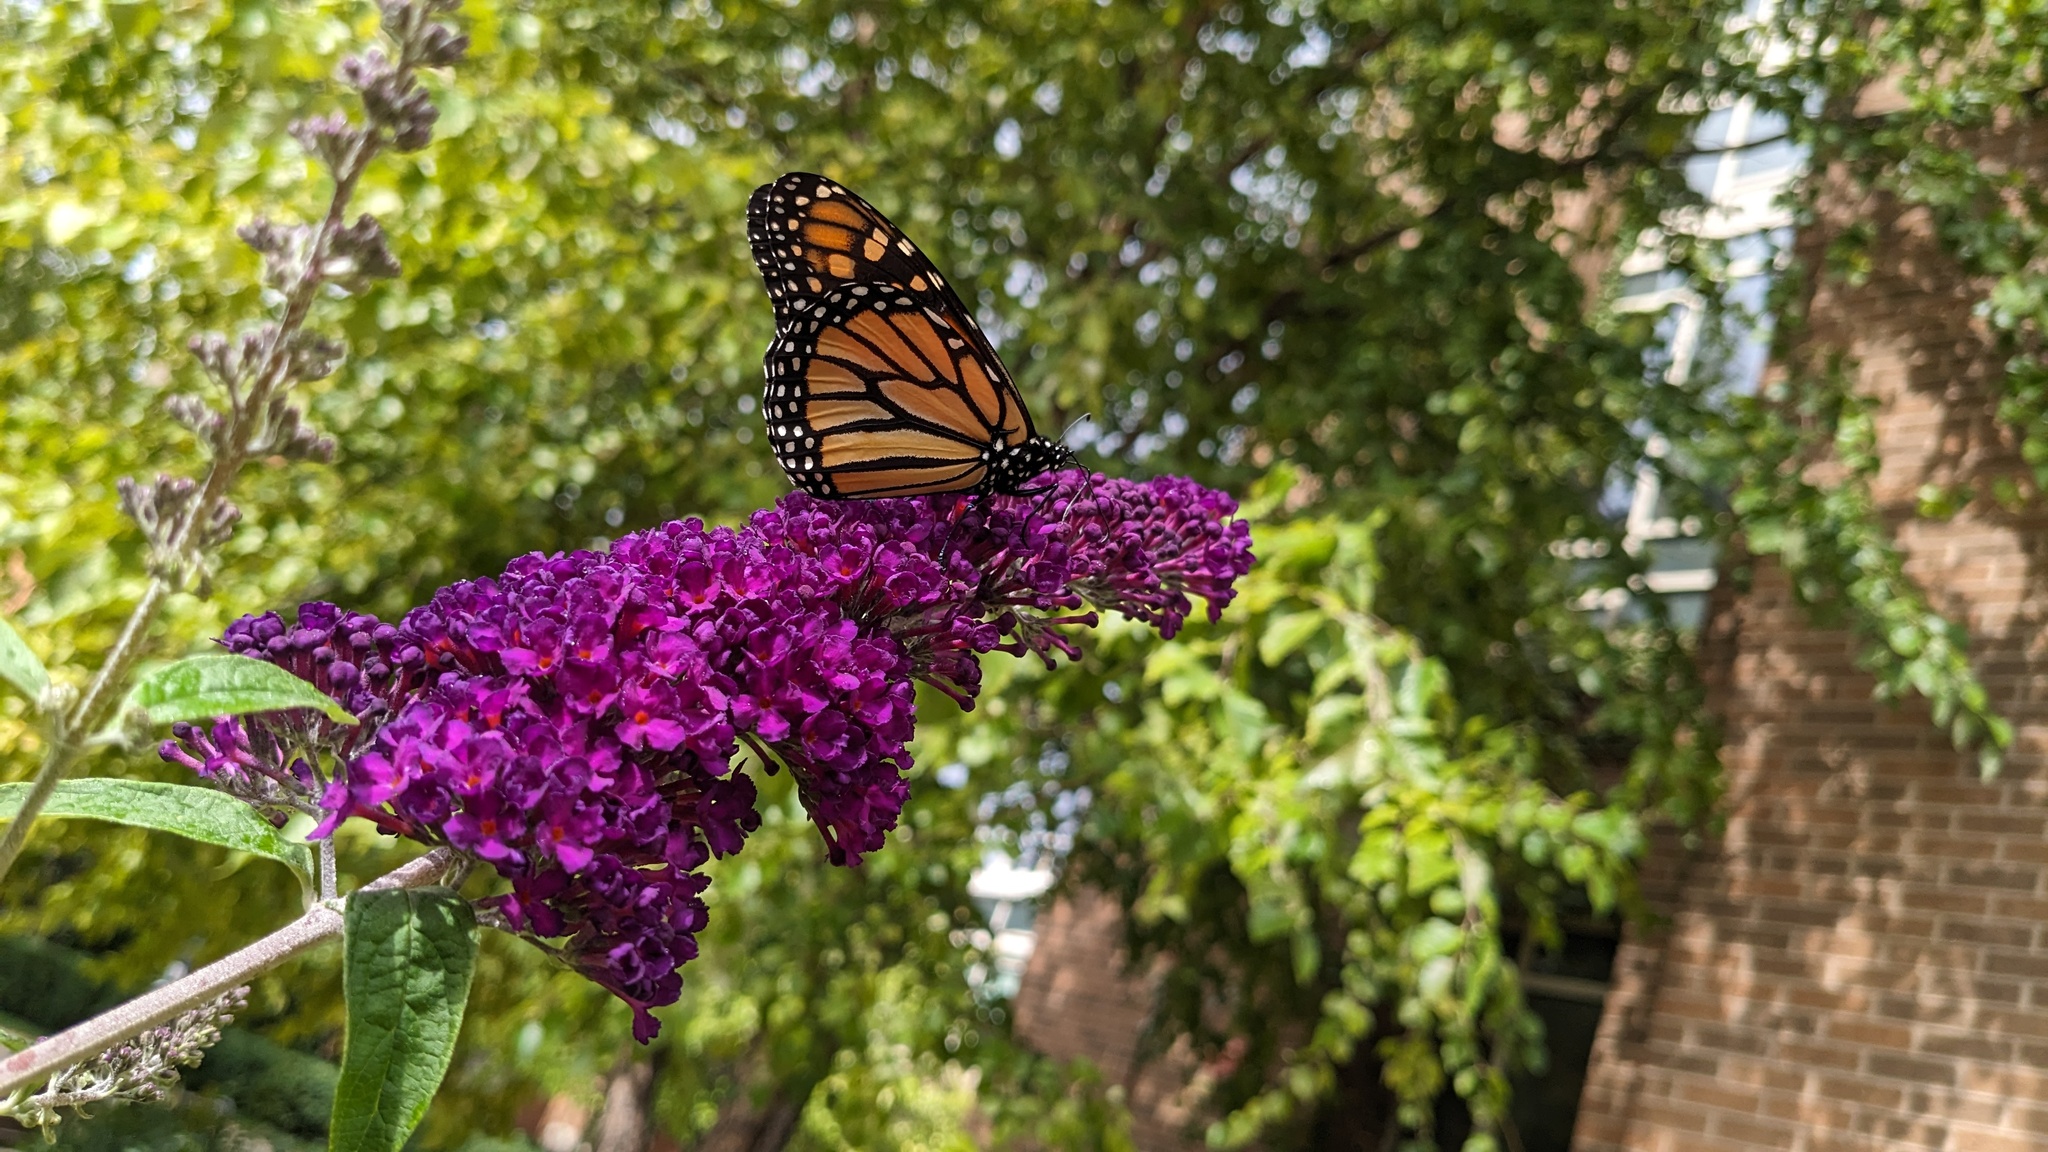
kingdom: Animalia
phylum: Arthropoda
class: Insecta
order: Lepidoptera
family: Nymphalidae
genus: Danaus
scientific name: Danaus plexippus
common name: Monarch
